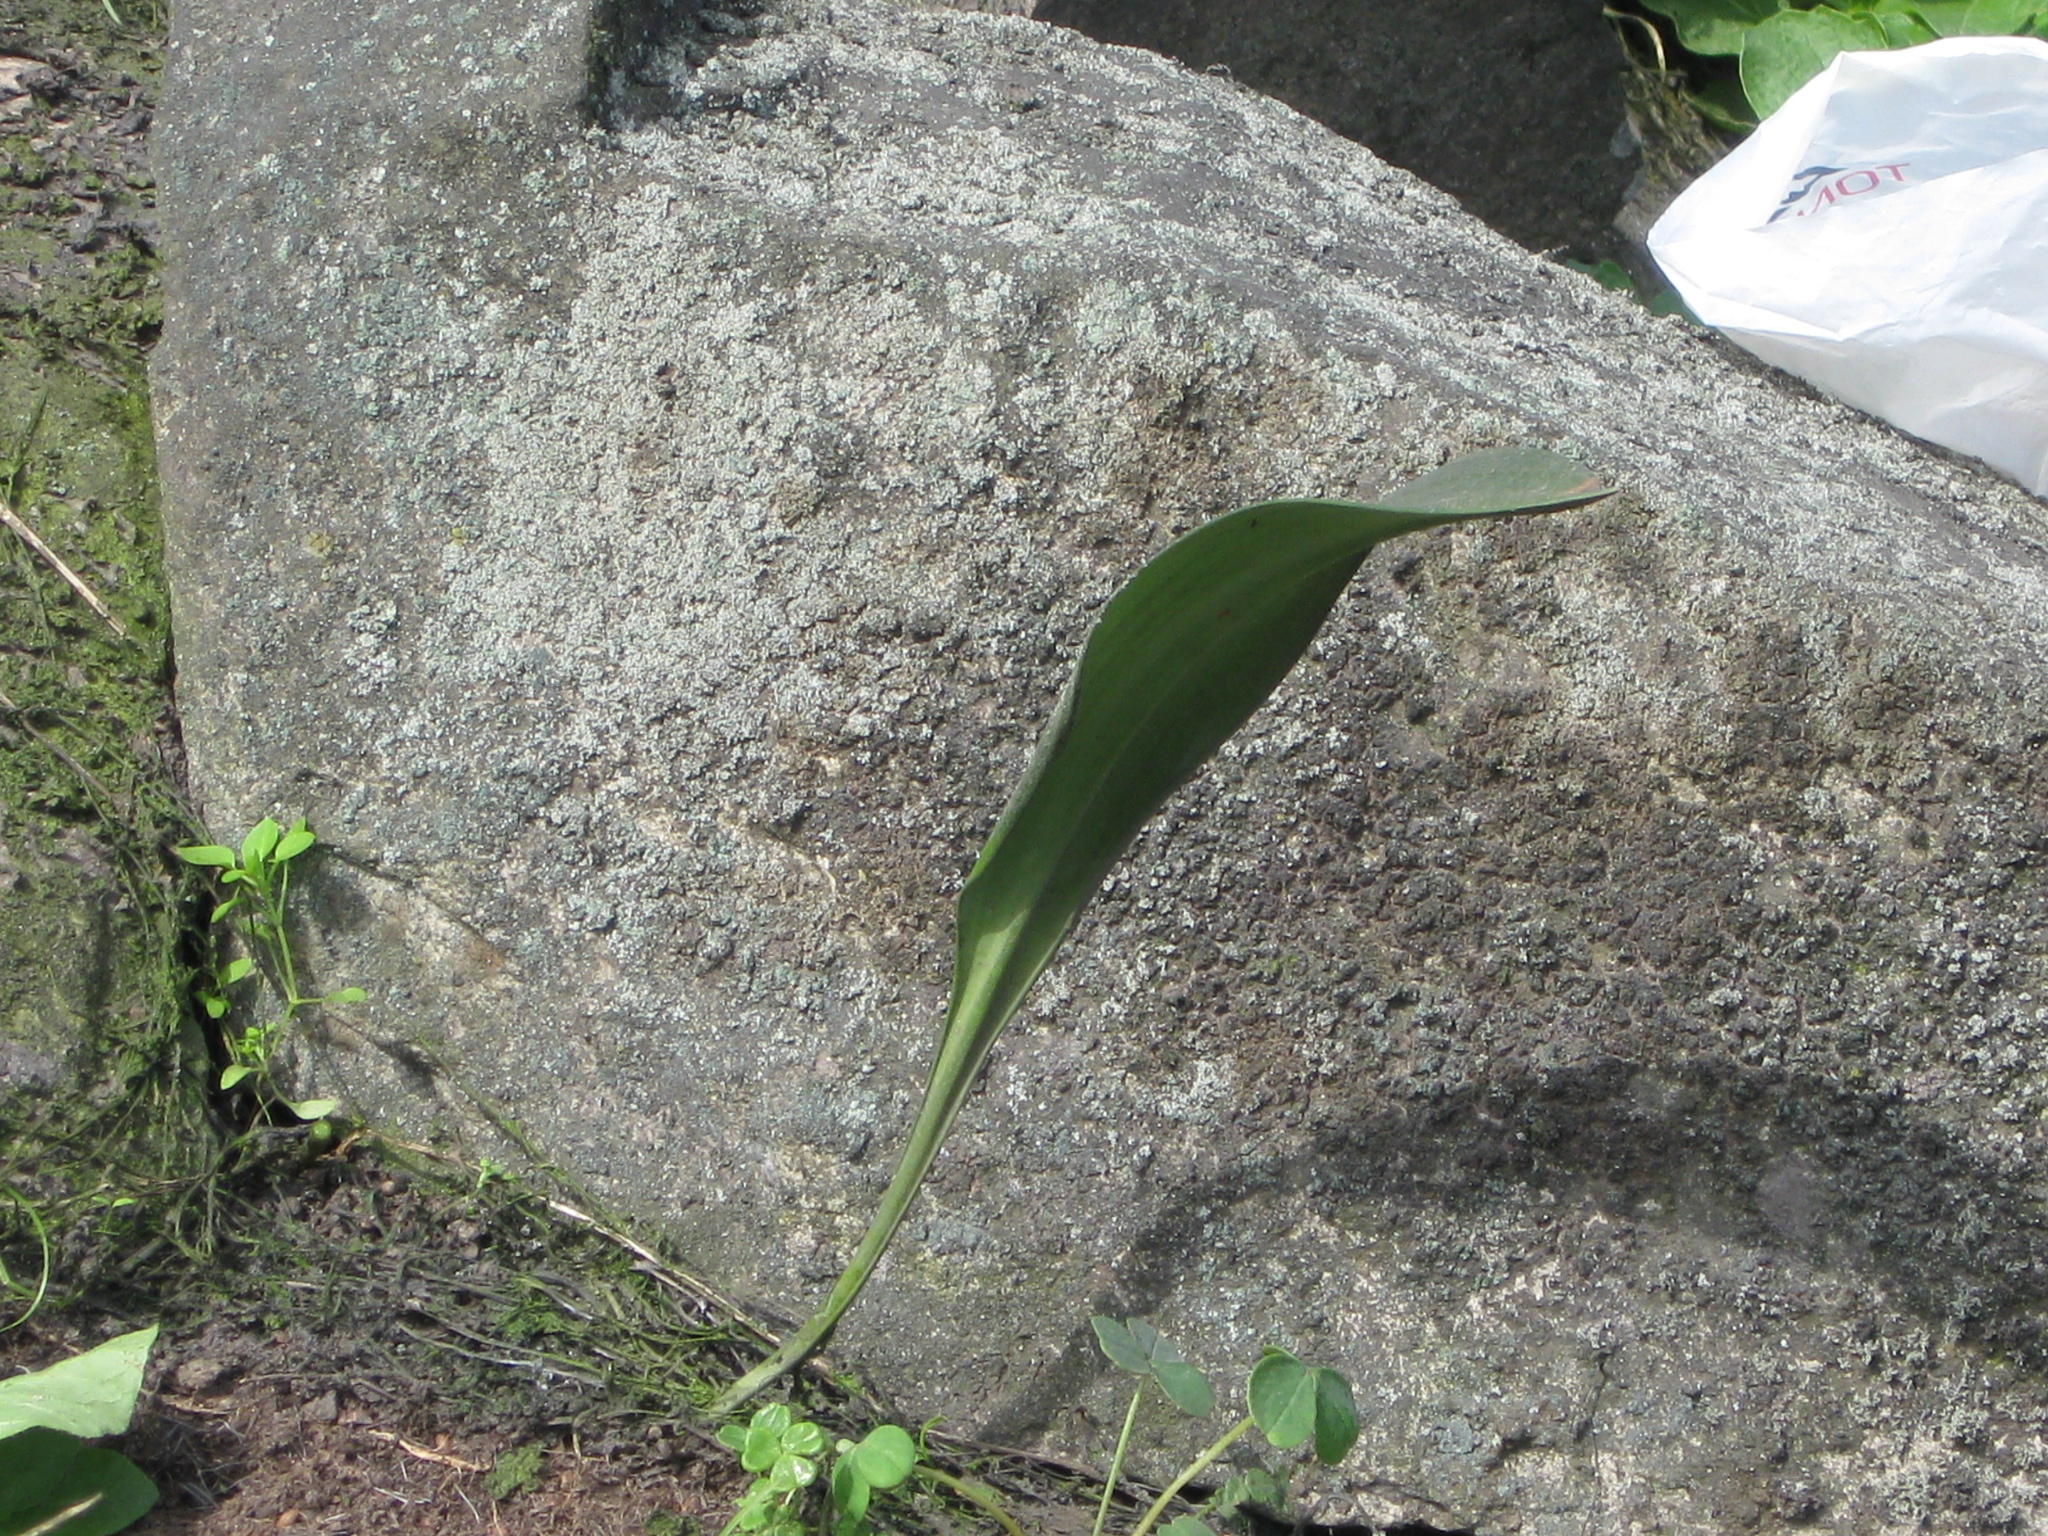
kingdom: Plantae
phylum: Tracheophyta
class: Liliopsida
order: Asparagales
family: Amaryllidaceae
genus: Stenomesson
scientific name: Stenomesson flavum
